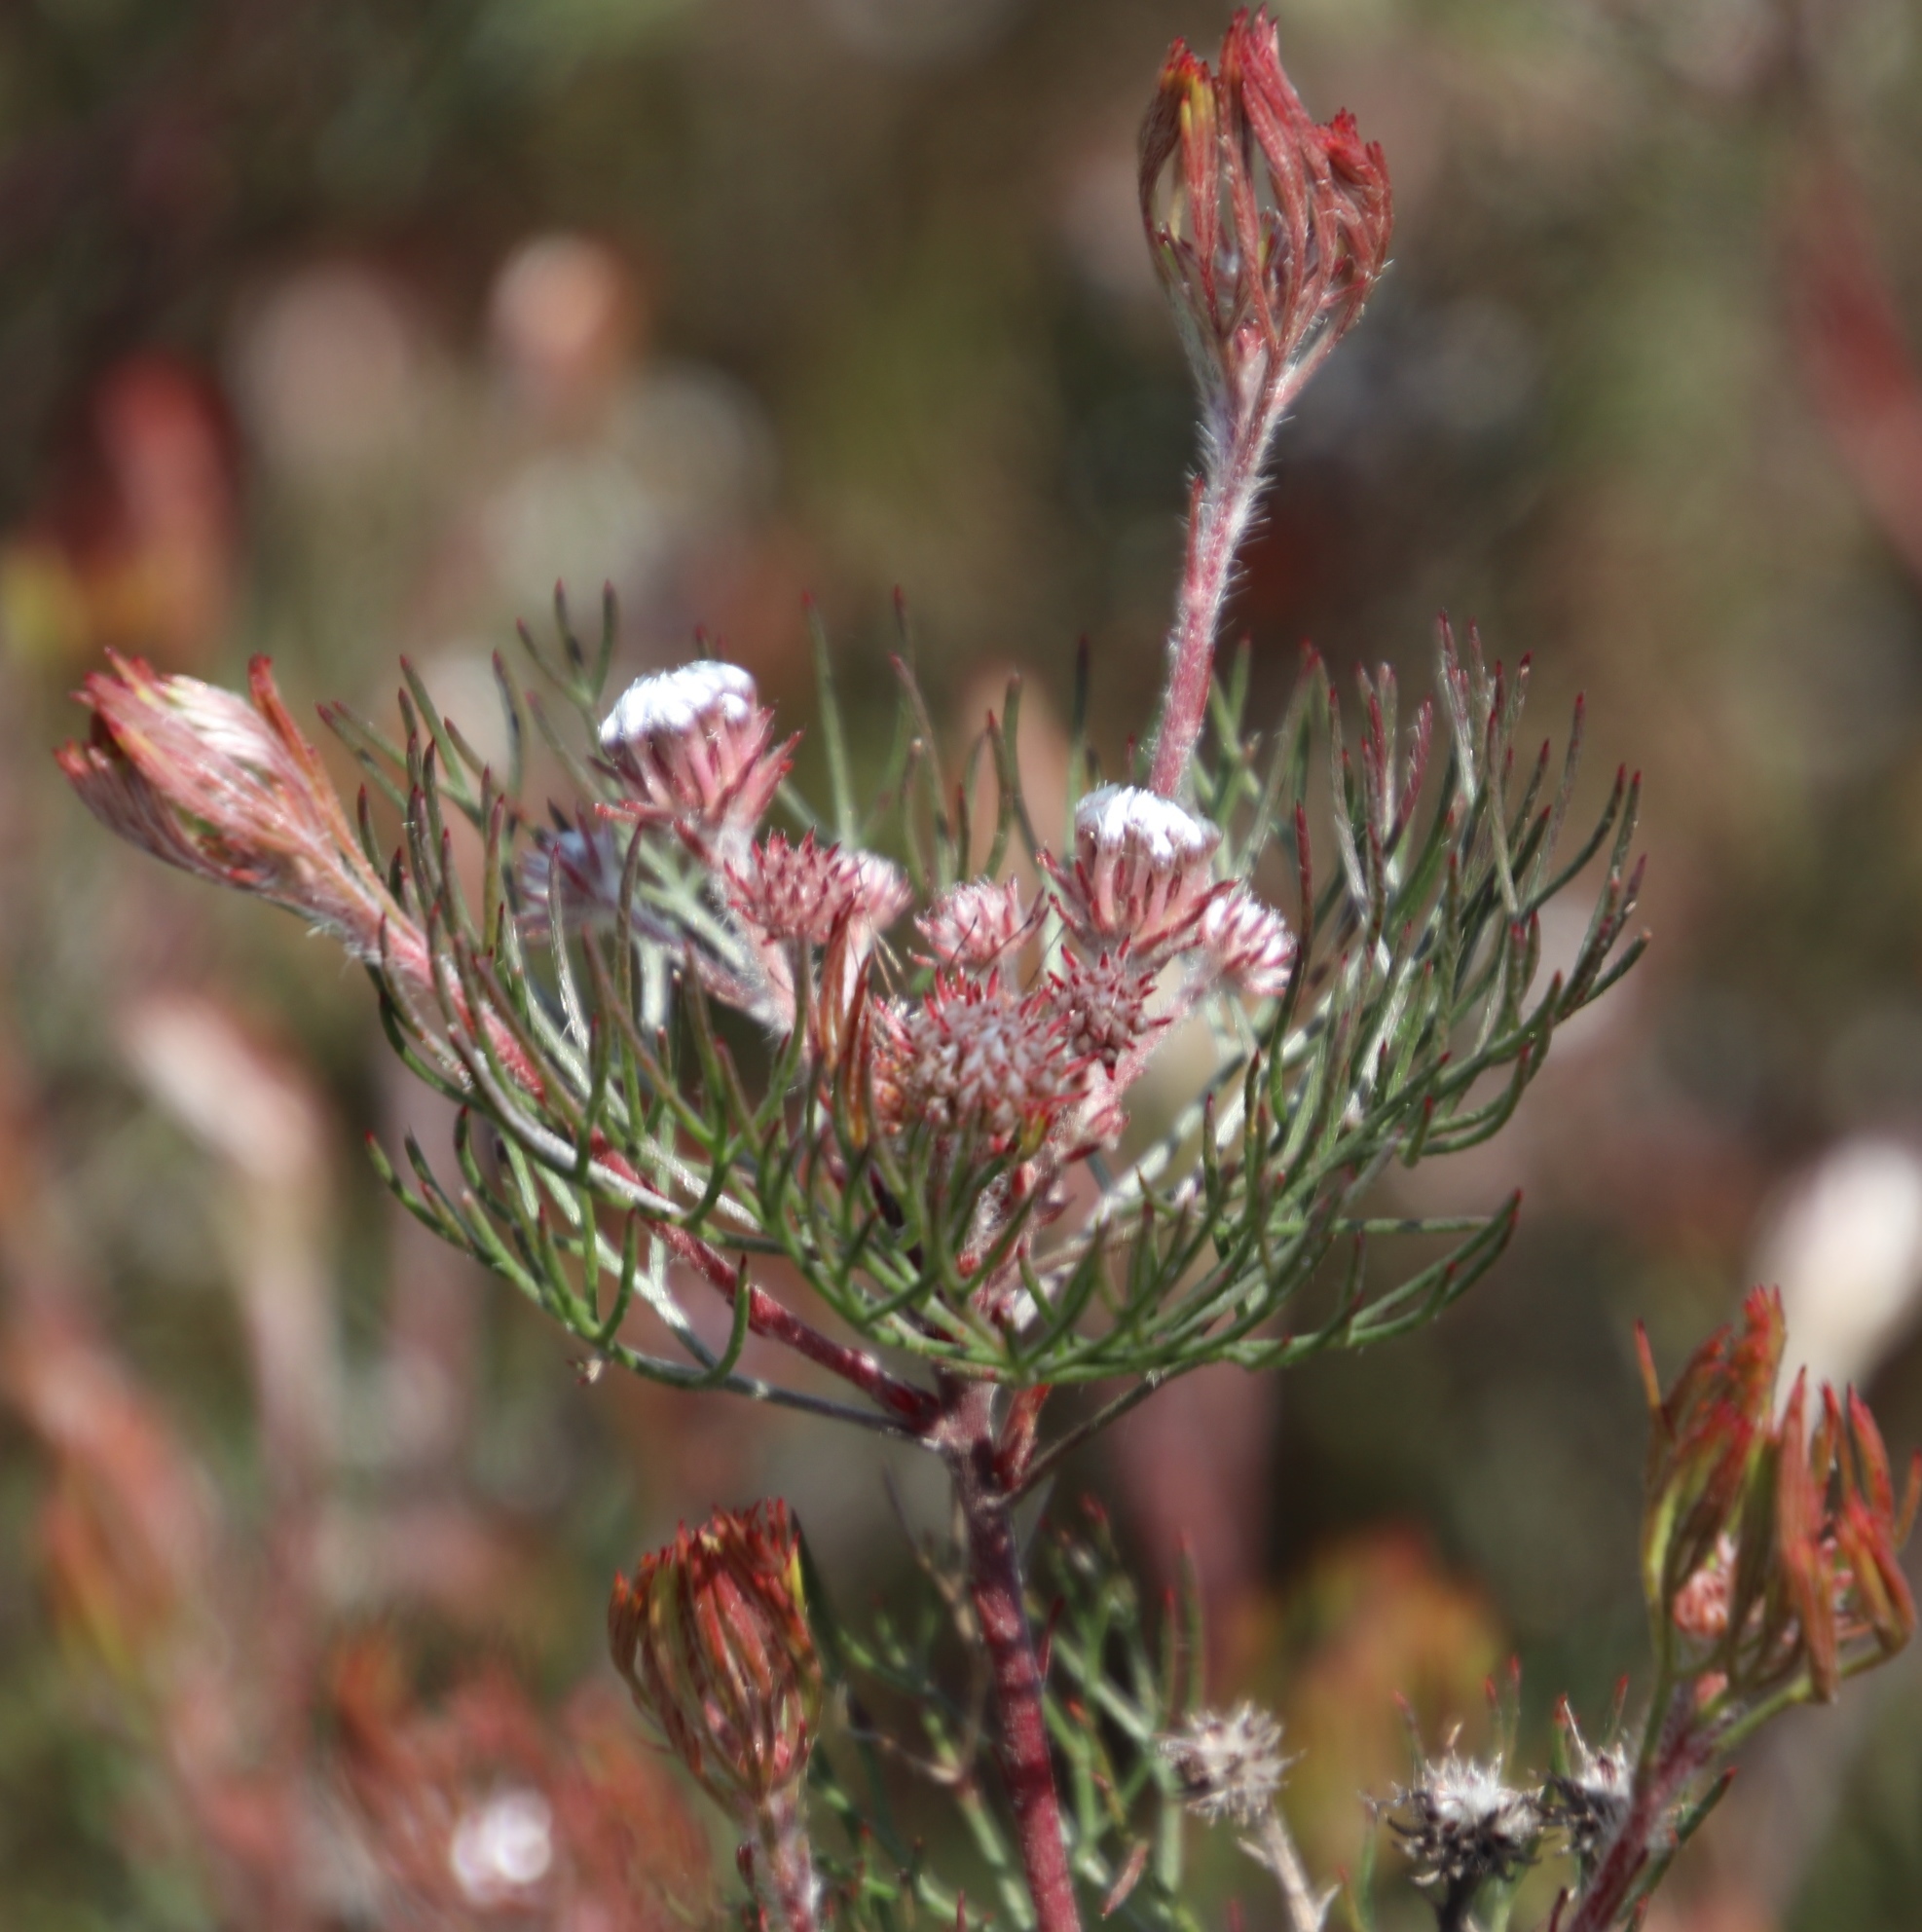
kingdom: Plantae
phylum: Tracheophyta
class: Magnoliopsida
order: Proteales
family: Proteaceae
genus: Serruria
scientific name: Serruria fasciflora
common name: Common pin spiderhead
